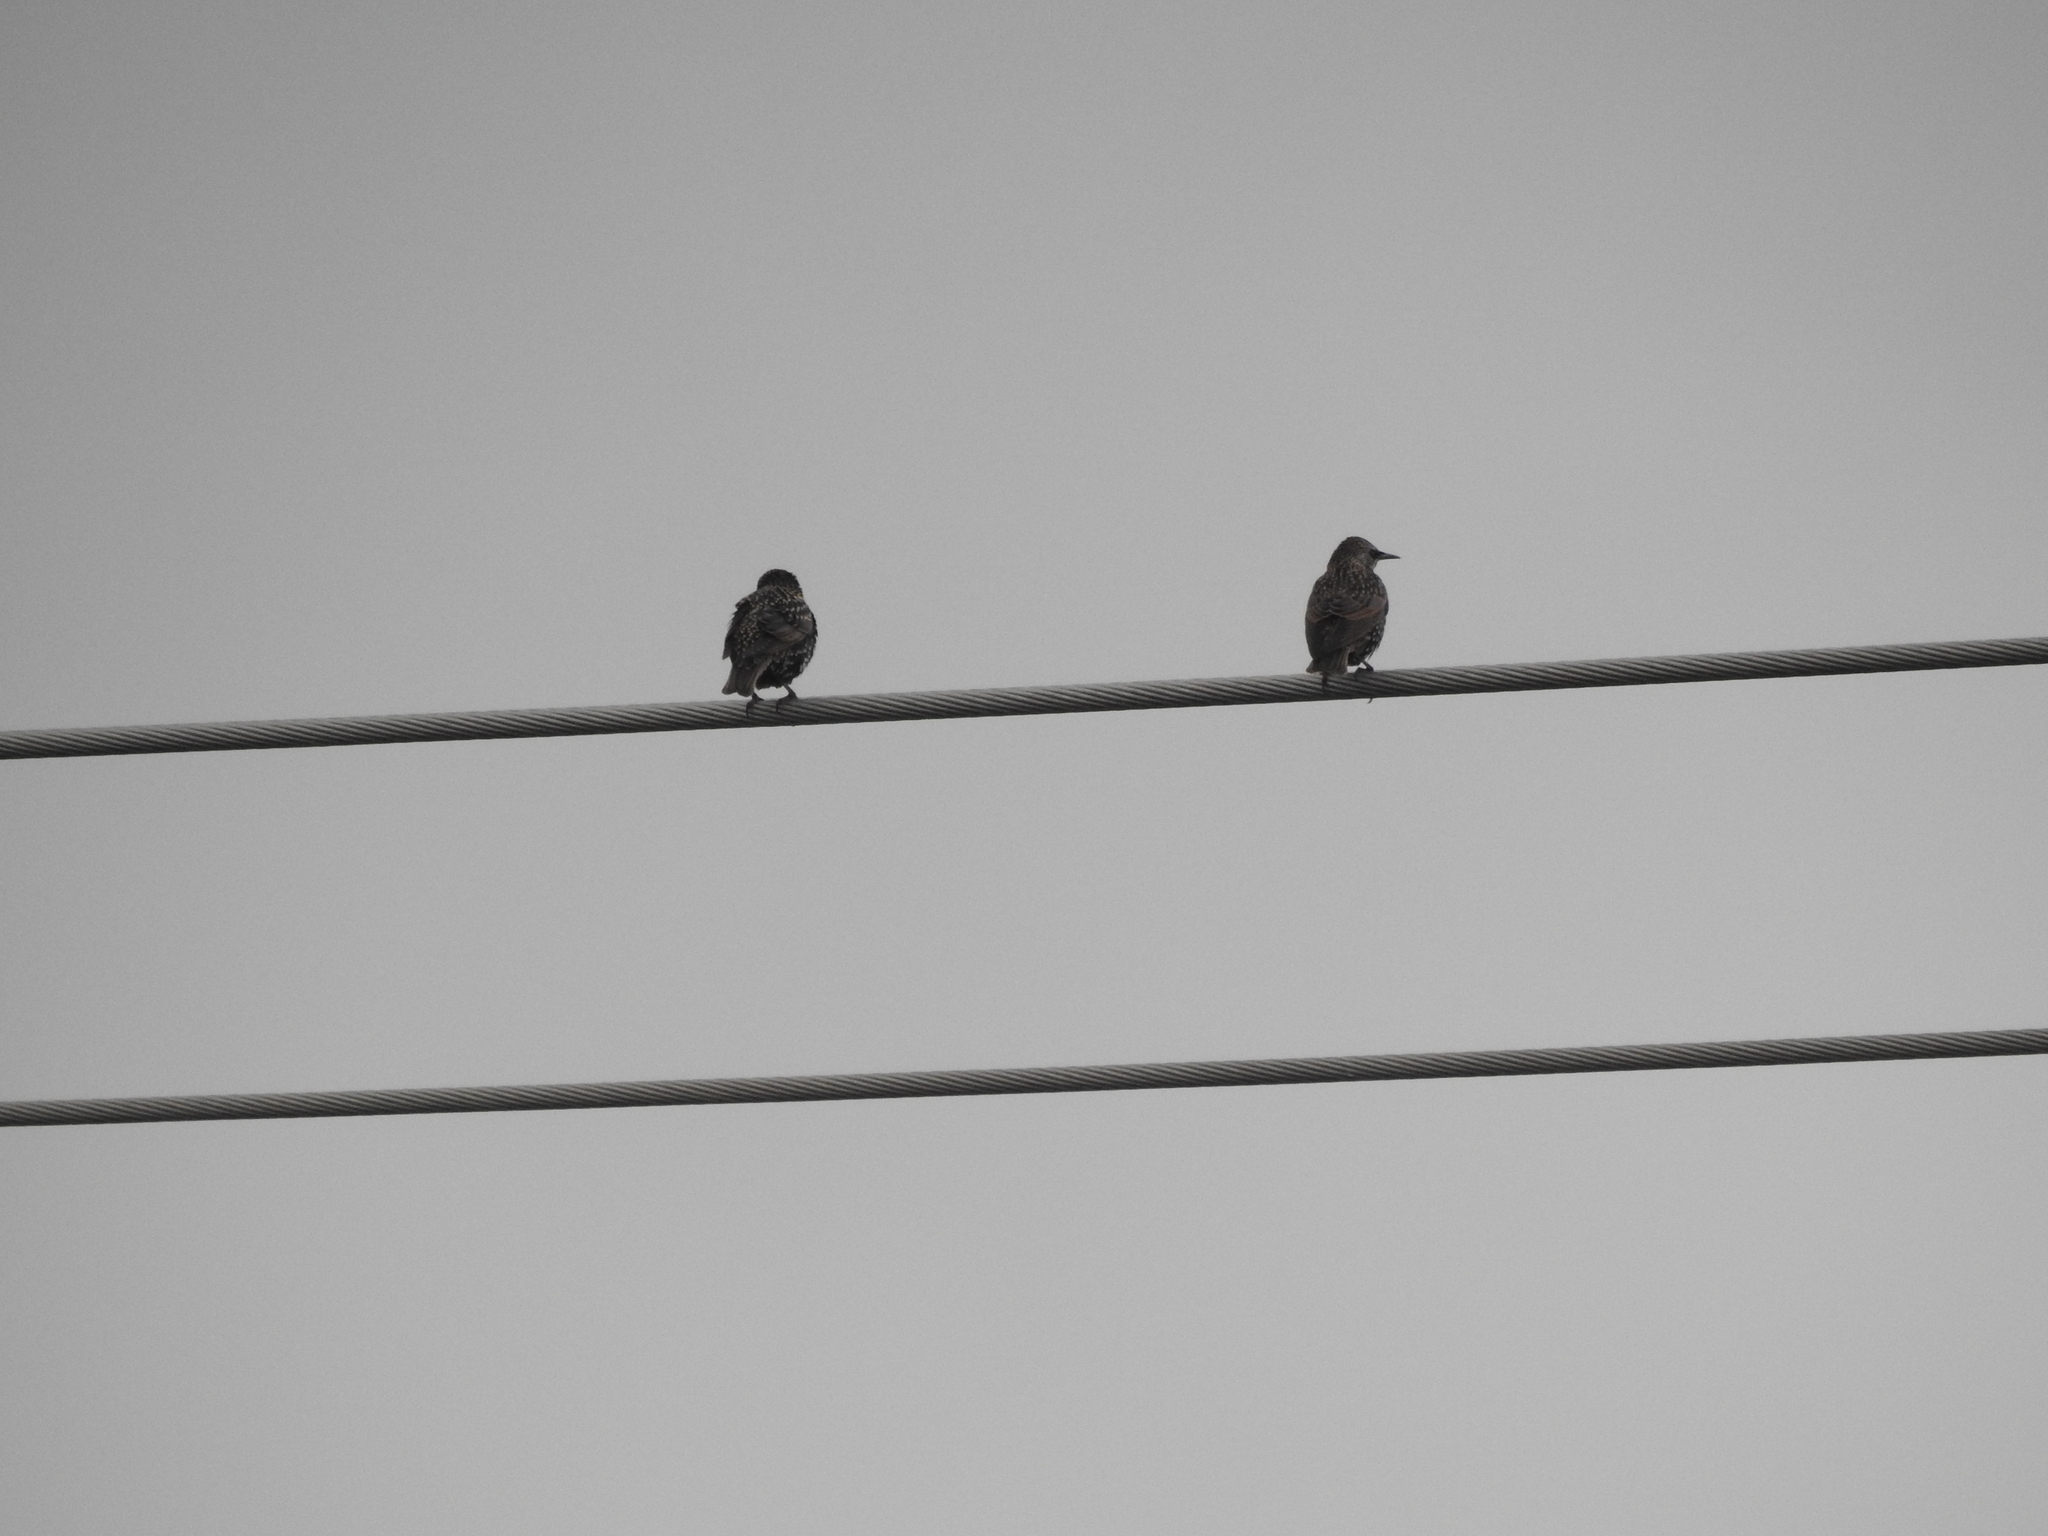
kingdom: Animalia
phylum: Chordata
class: Aves
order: Passeriformes
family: Sturnidae
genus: Sturnus
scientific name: Sturnus vulgaris
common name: Common starling
